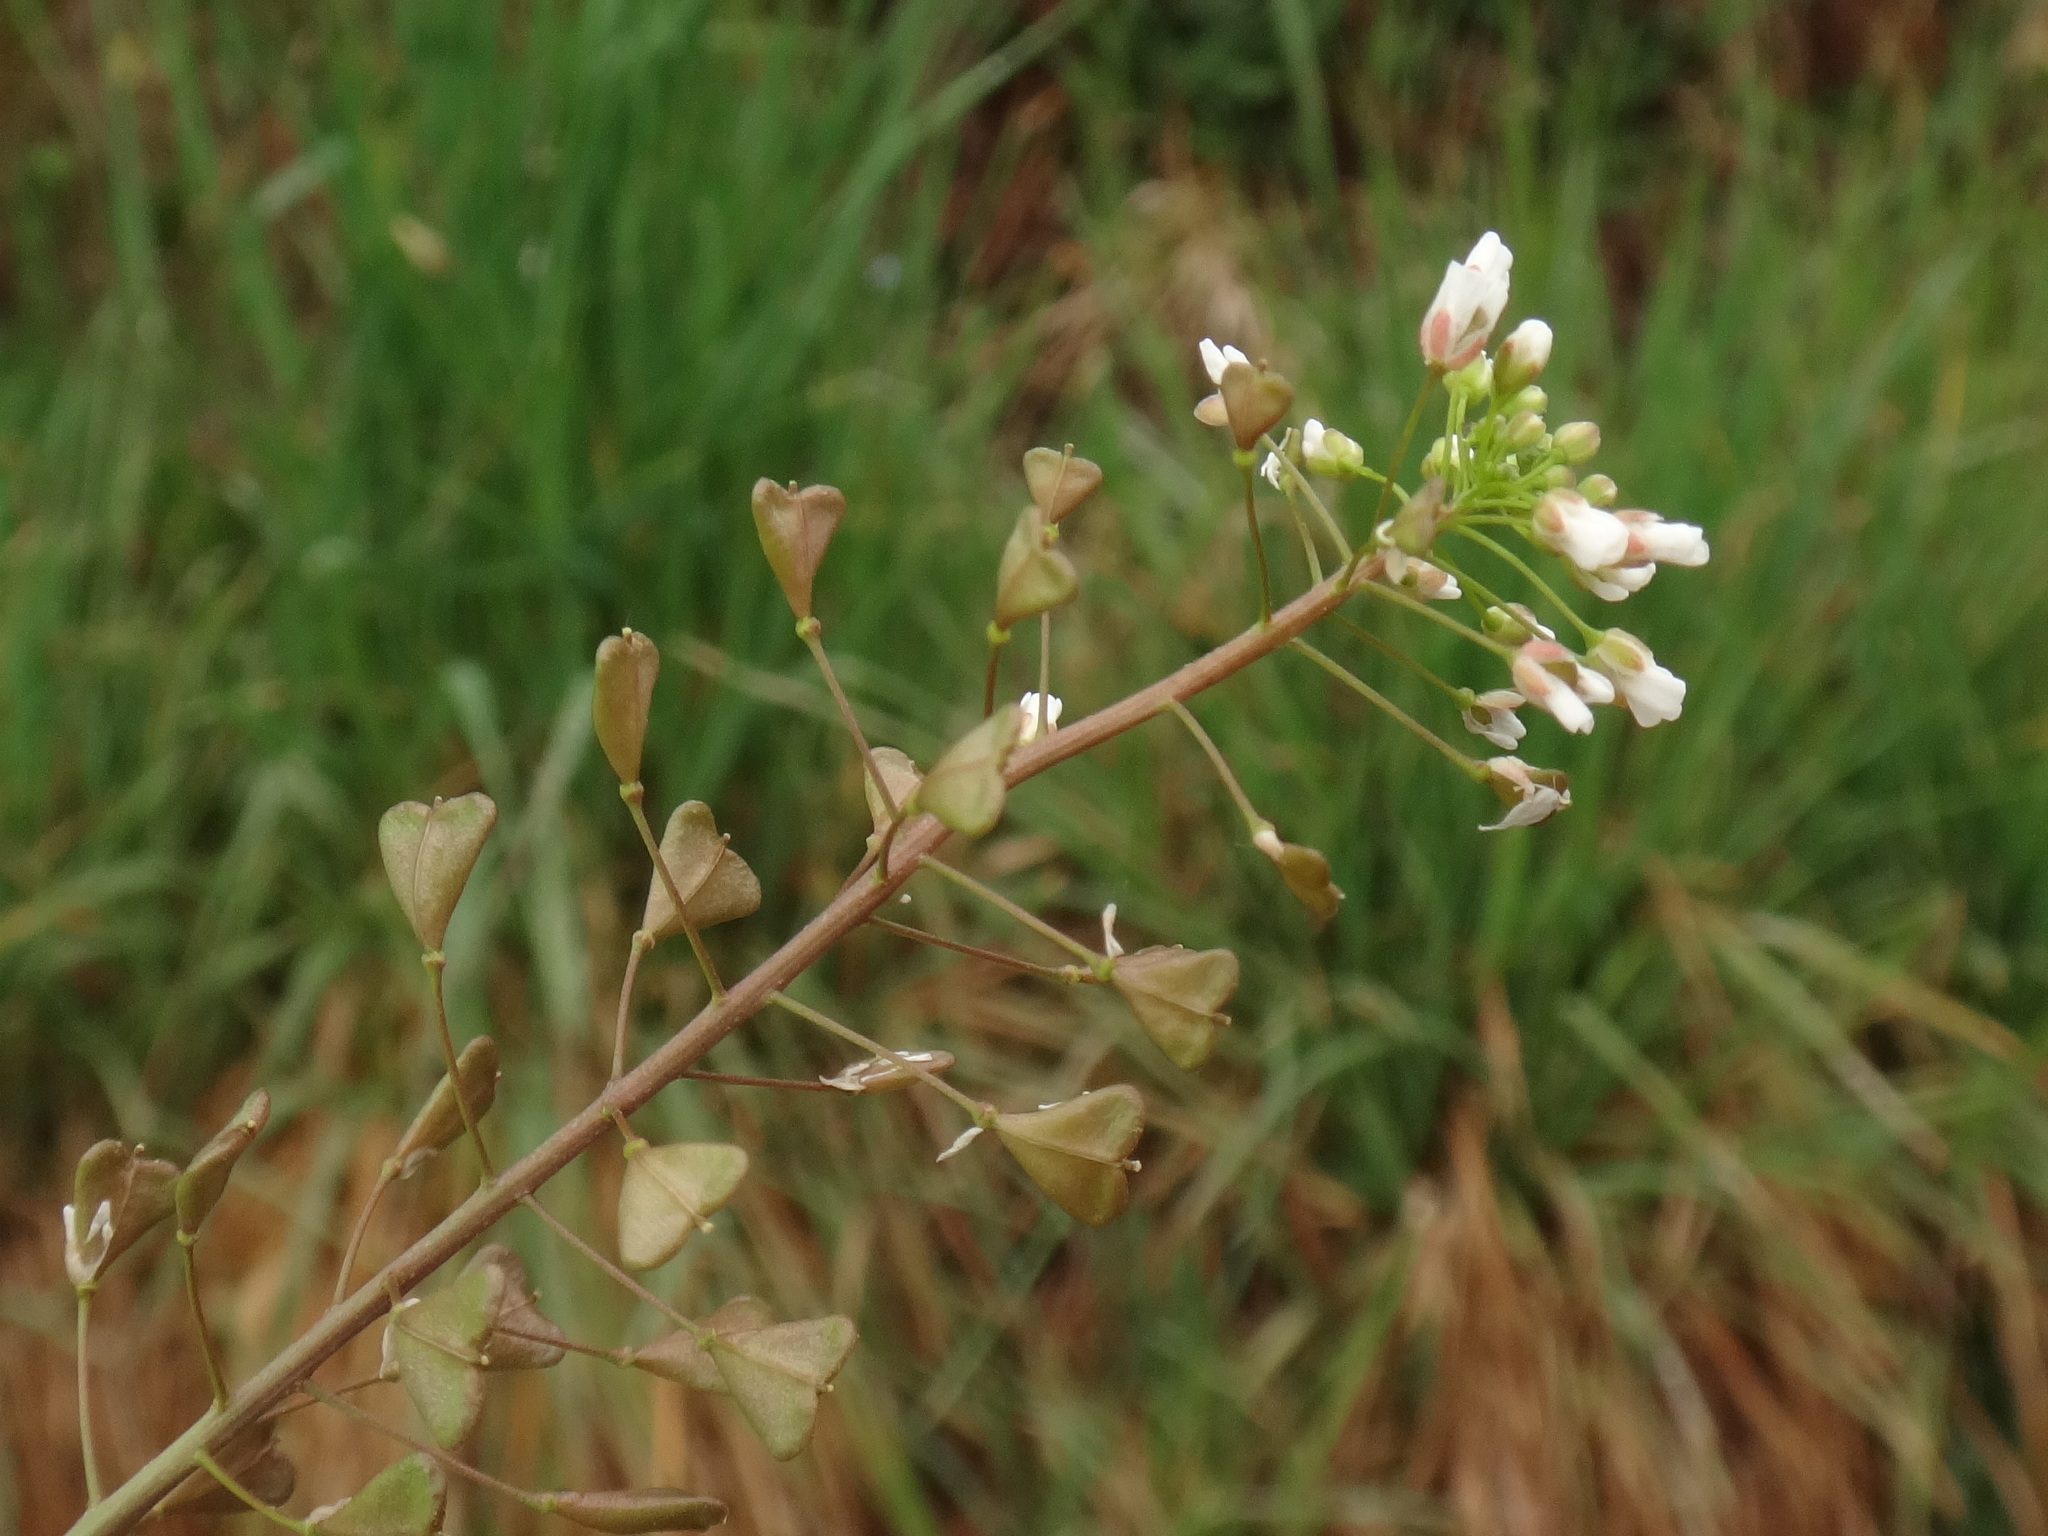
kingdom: Plantae
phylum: Tracheophyta
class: Magnoliopsida
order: Brassicales
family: Brassicaceae
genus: Capsella
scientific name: Capsella bursa-pastoris
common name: Shepherd's purse
